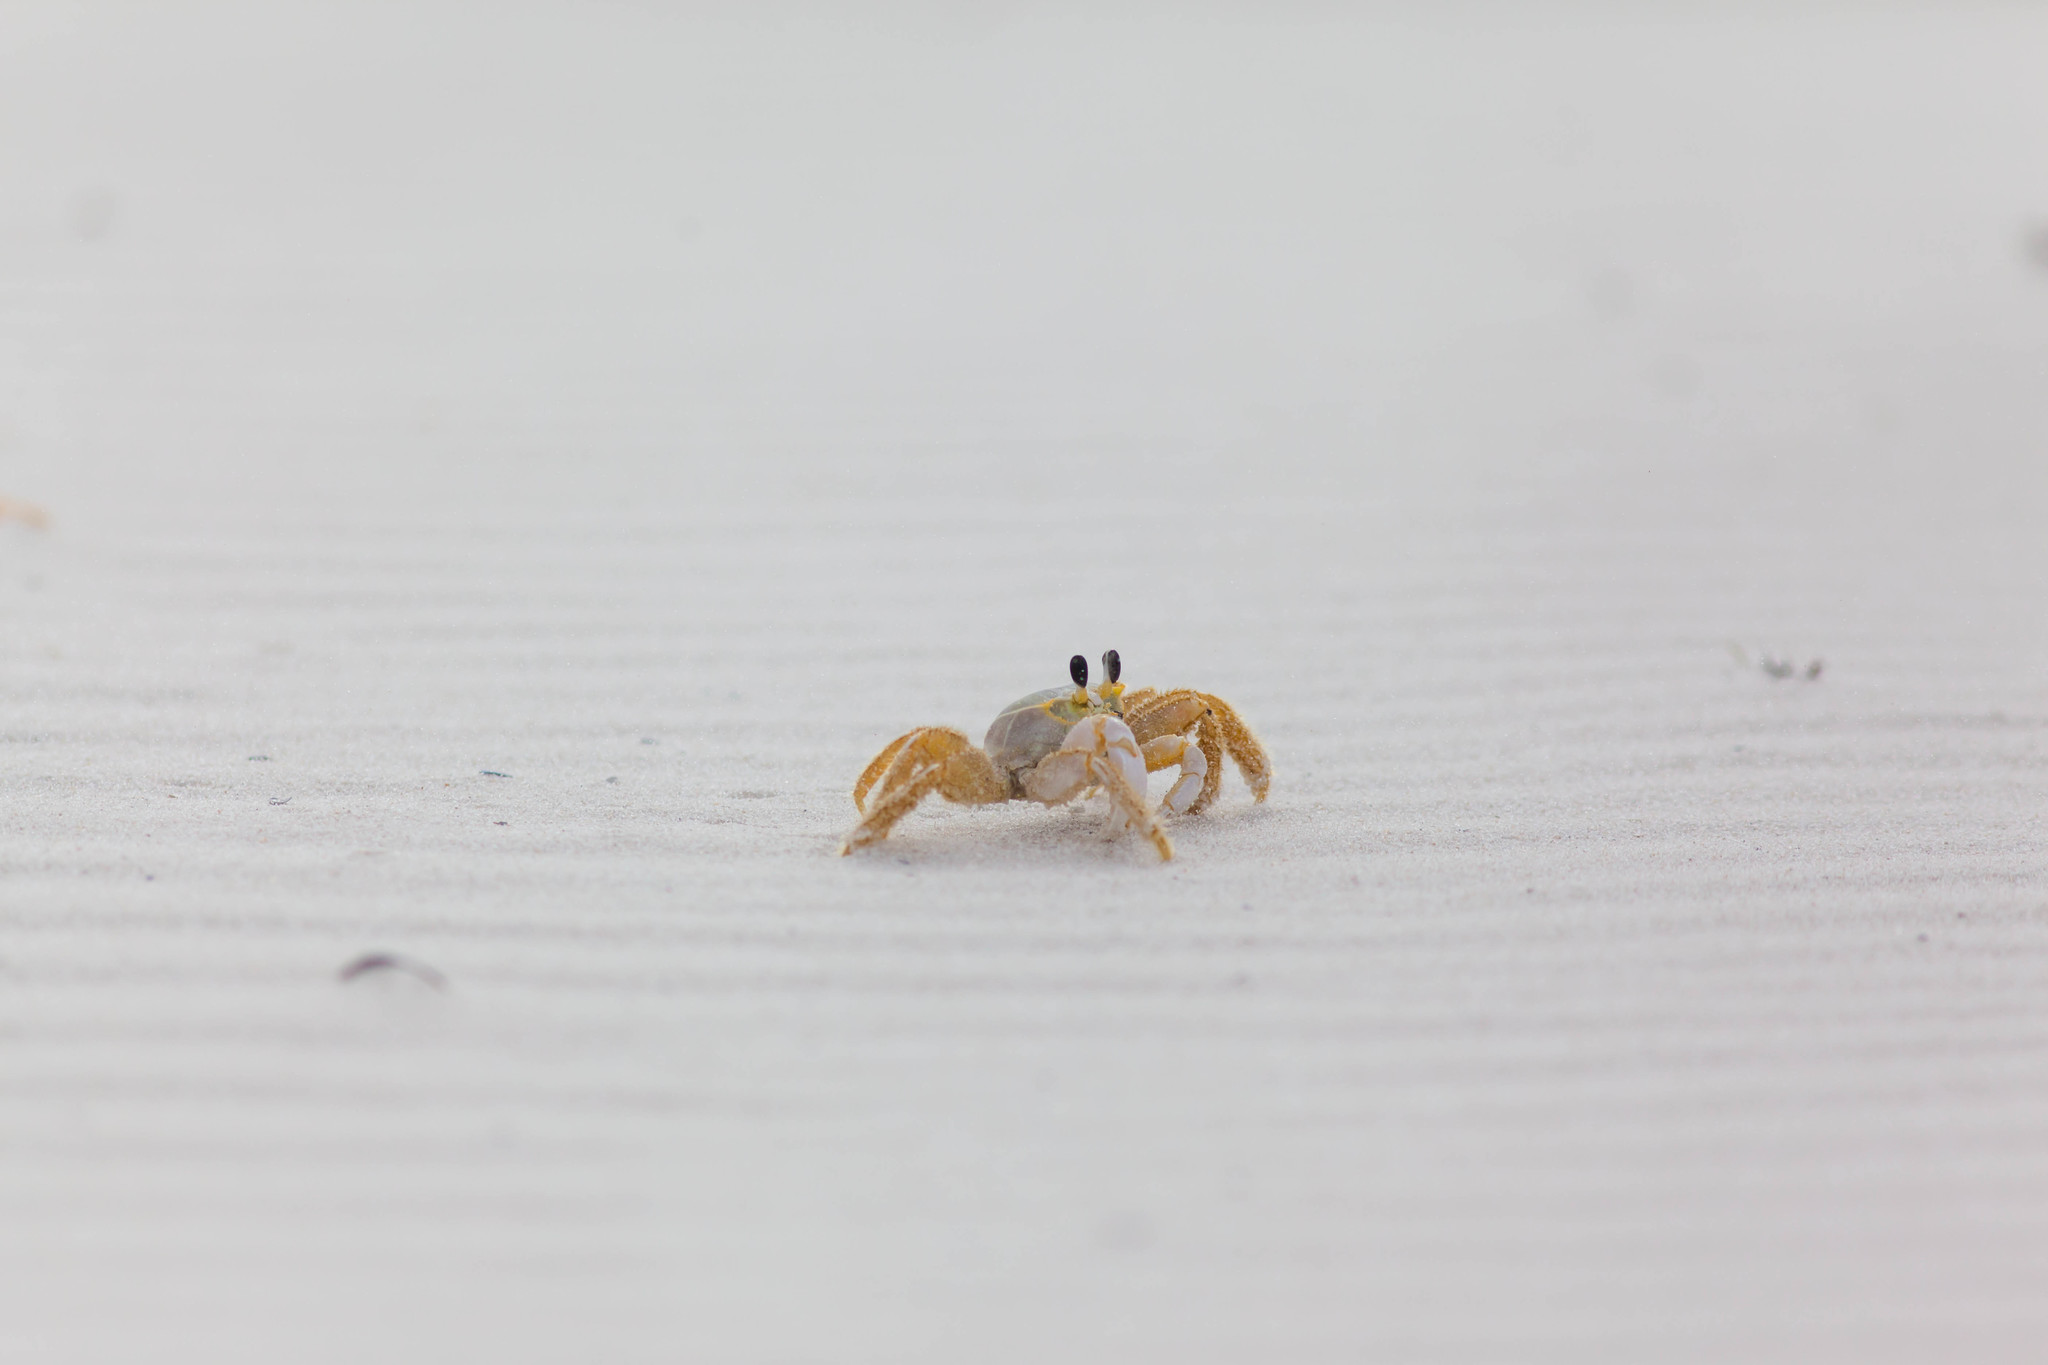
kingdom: Animalia
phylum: Arthropoda
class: Malacostraca
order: Decapoda
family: Ocypodidae
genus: Ocypode
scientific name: Ocypode quadrata
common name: Ghost crab
